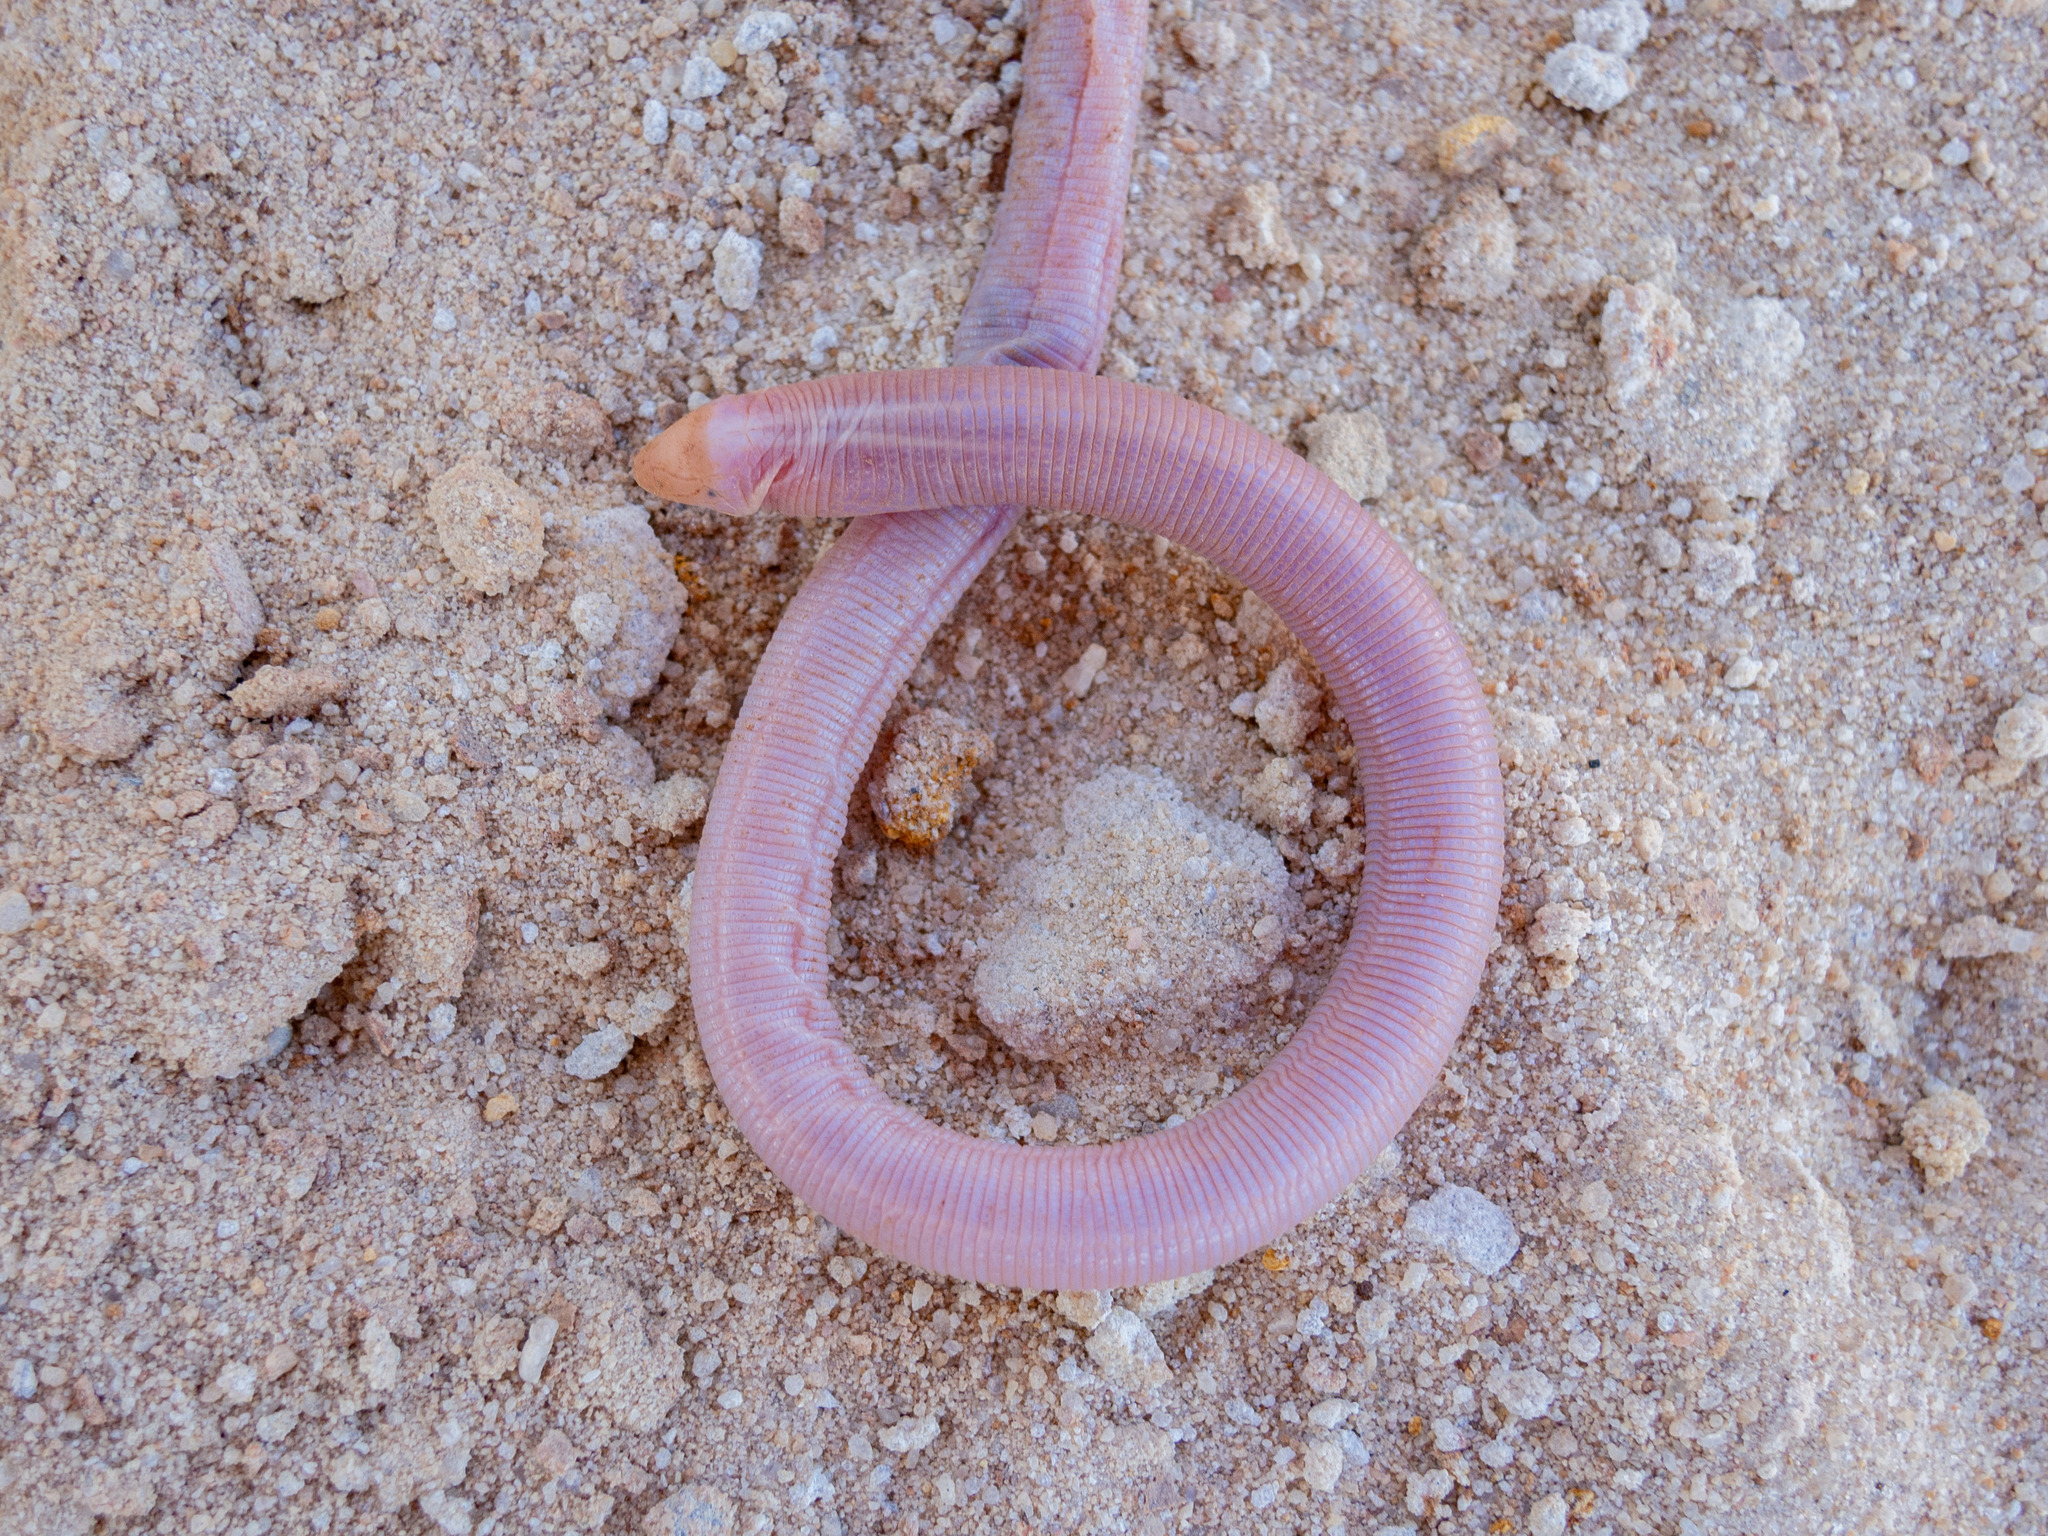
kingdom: Animalia
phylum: Chordata
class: Squamata
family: Amphisbaenidae
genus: Leposternon
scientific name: Leposternon octostegum
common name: Dumeril's worm lizard
